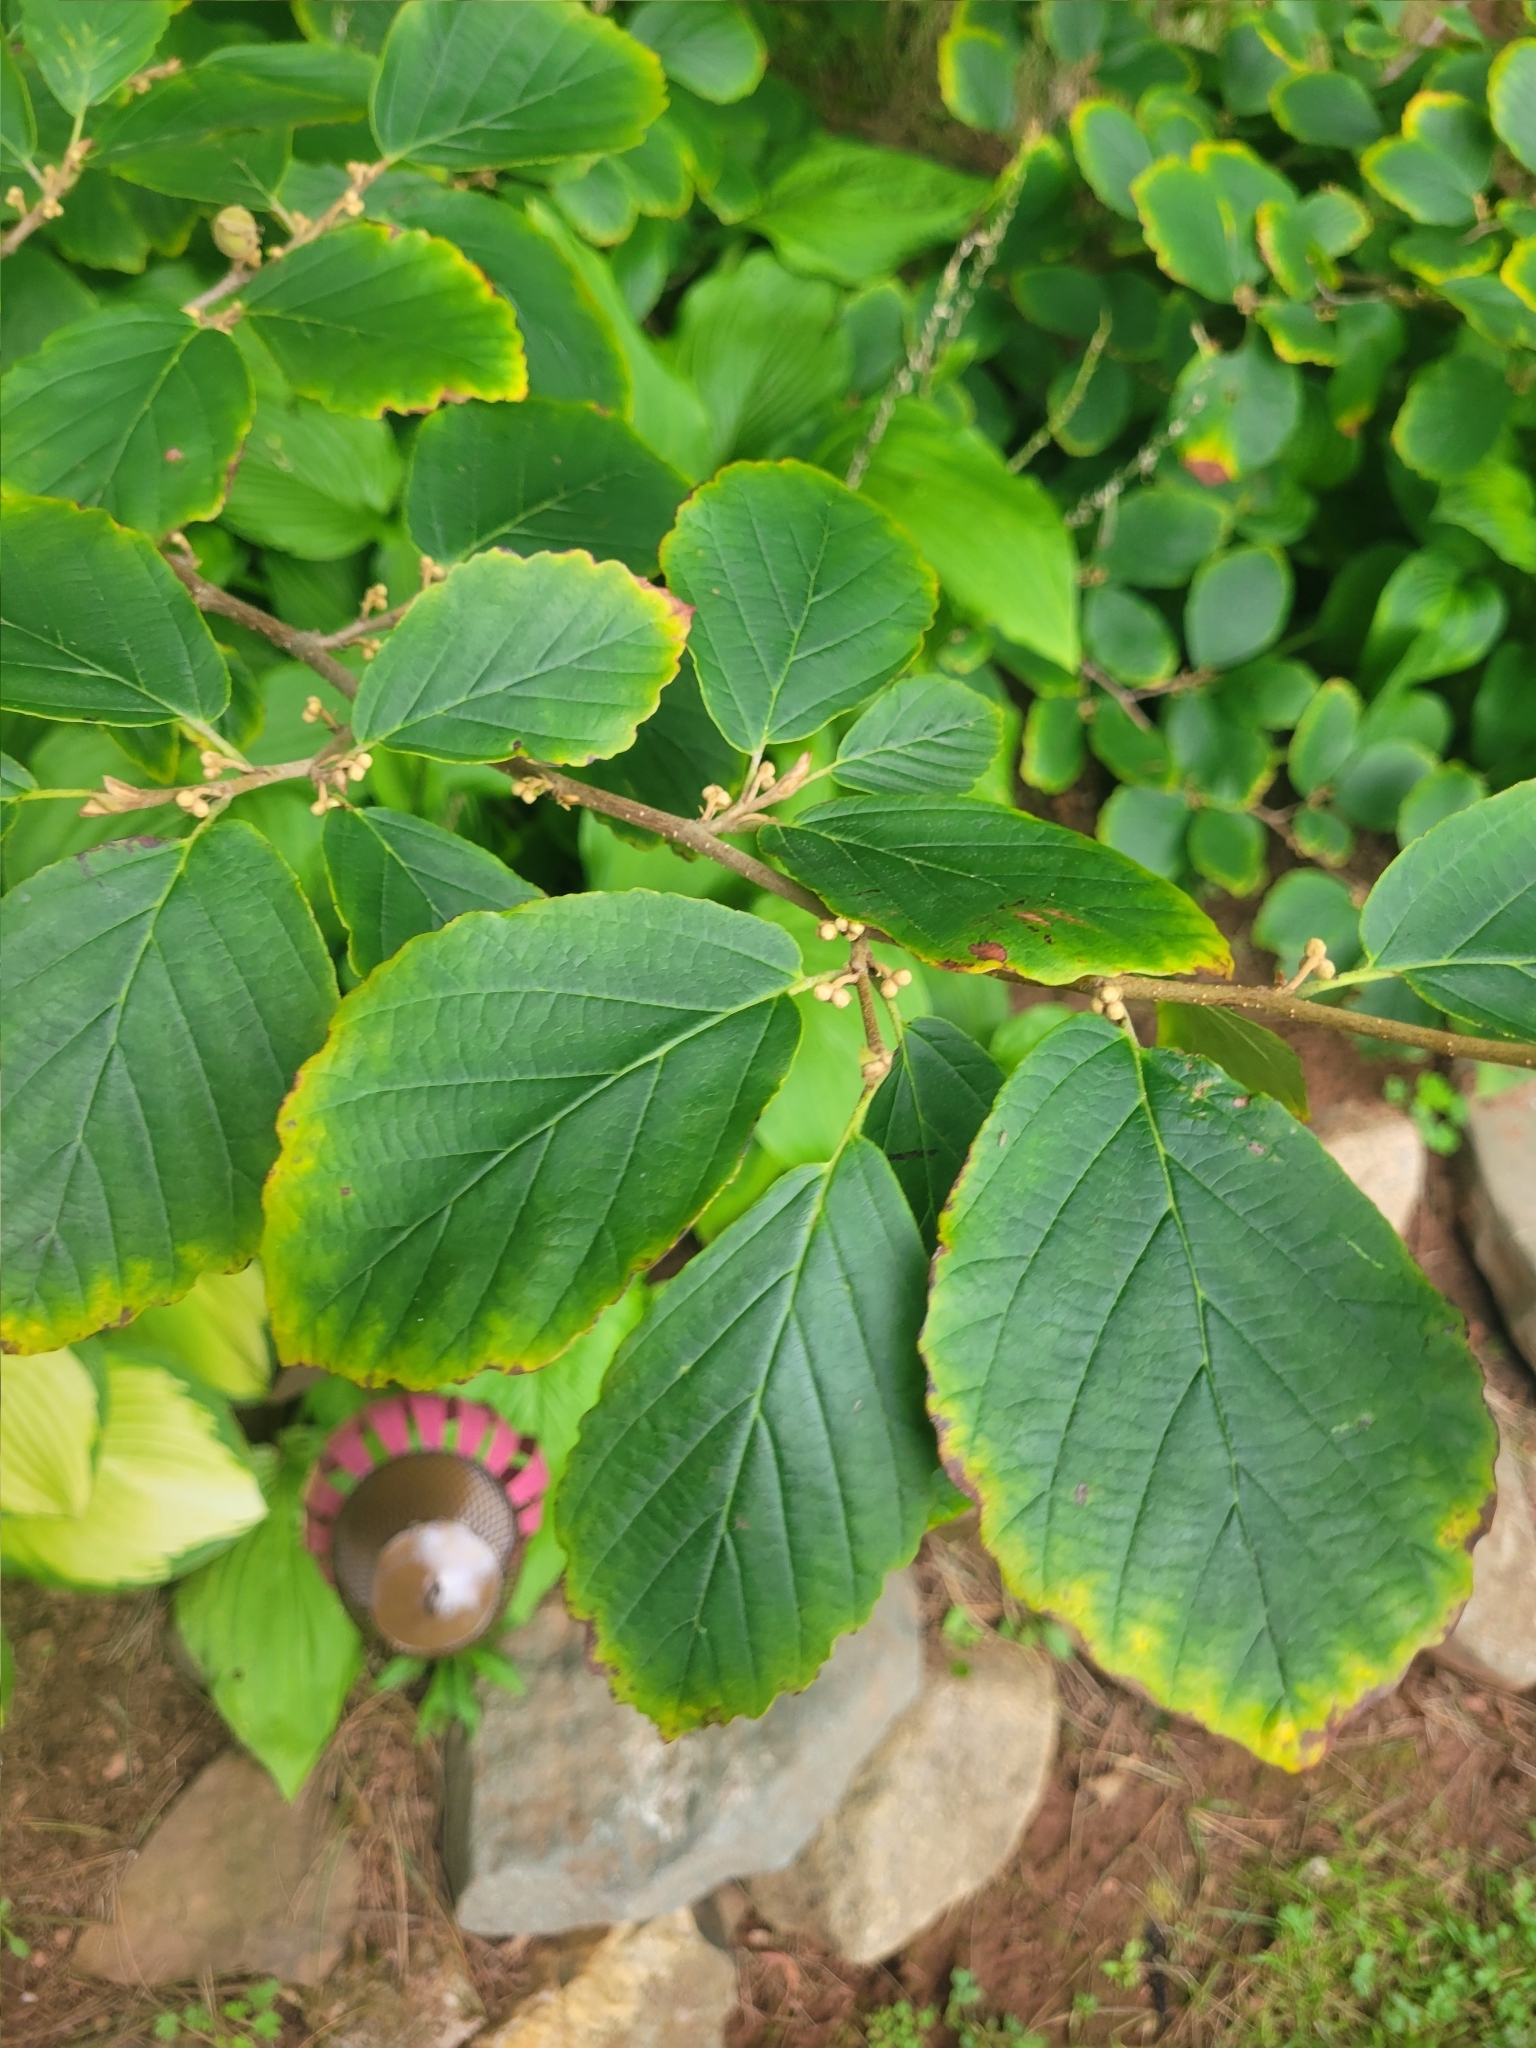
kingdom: Plantae
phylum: Tracheophyta
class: Magnoliopsida
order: Saxifragales
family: Hamamelidaceae
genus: Hamamelis
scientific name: Hamamelis virginiana
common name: Witch-hazel
